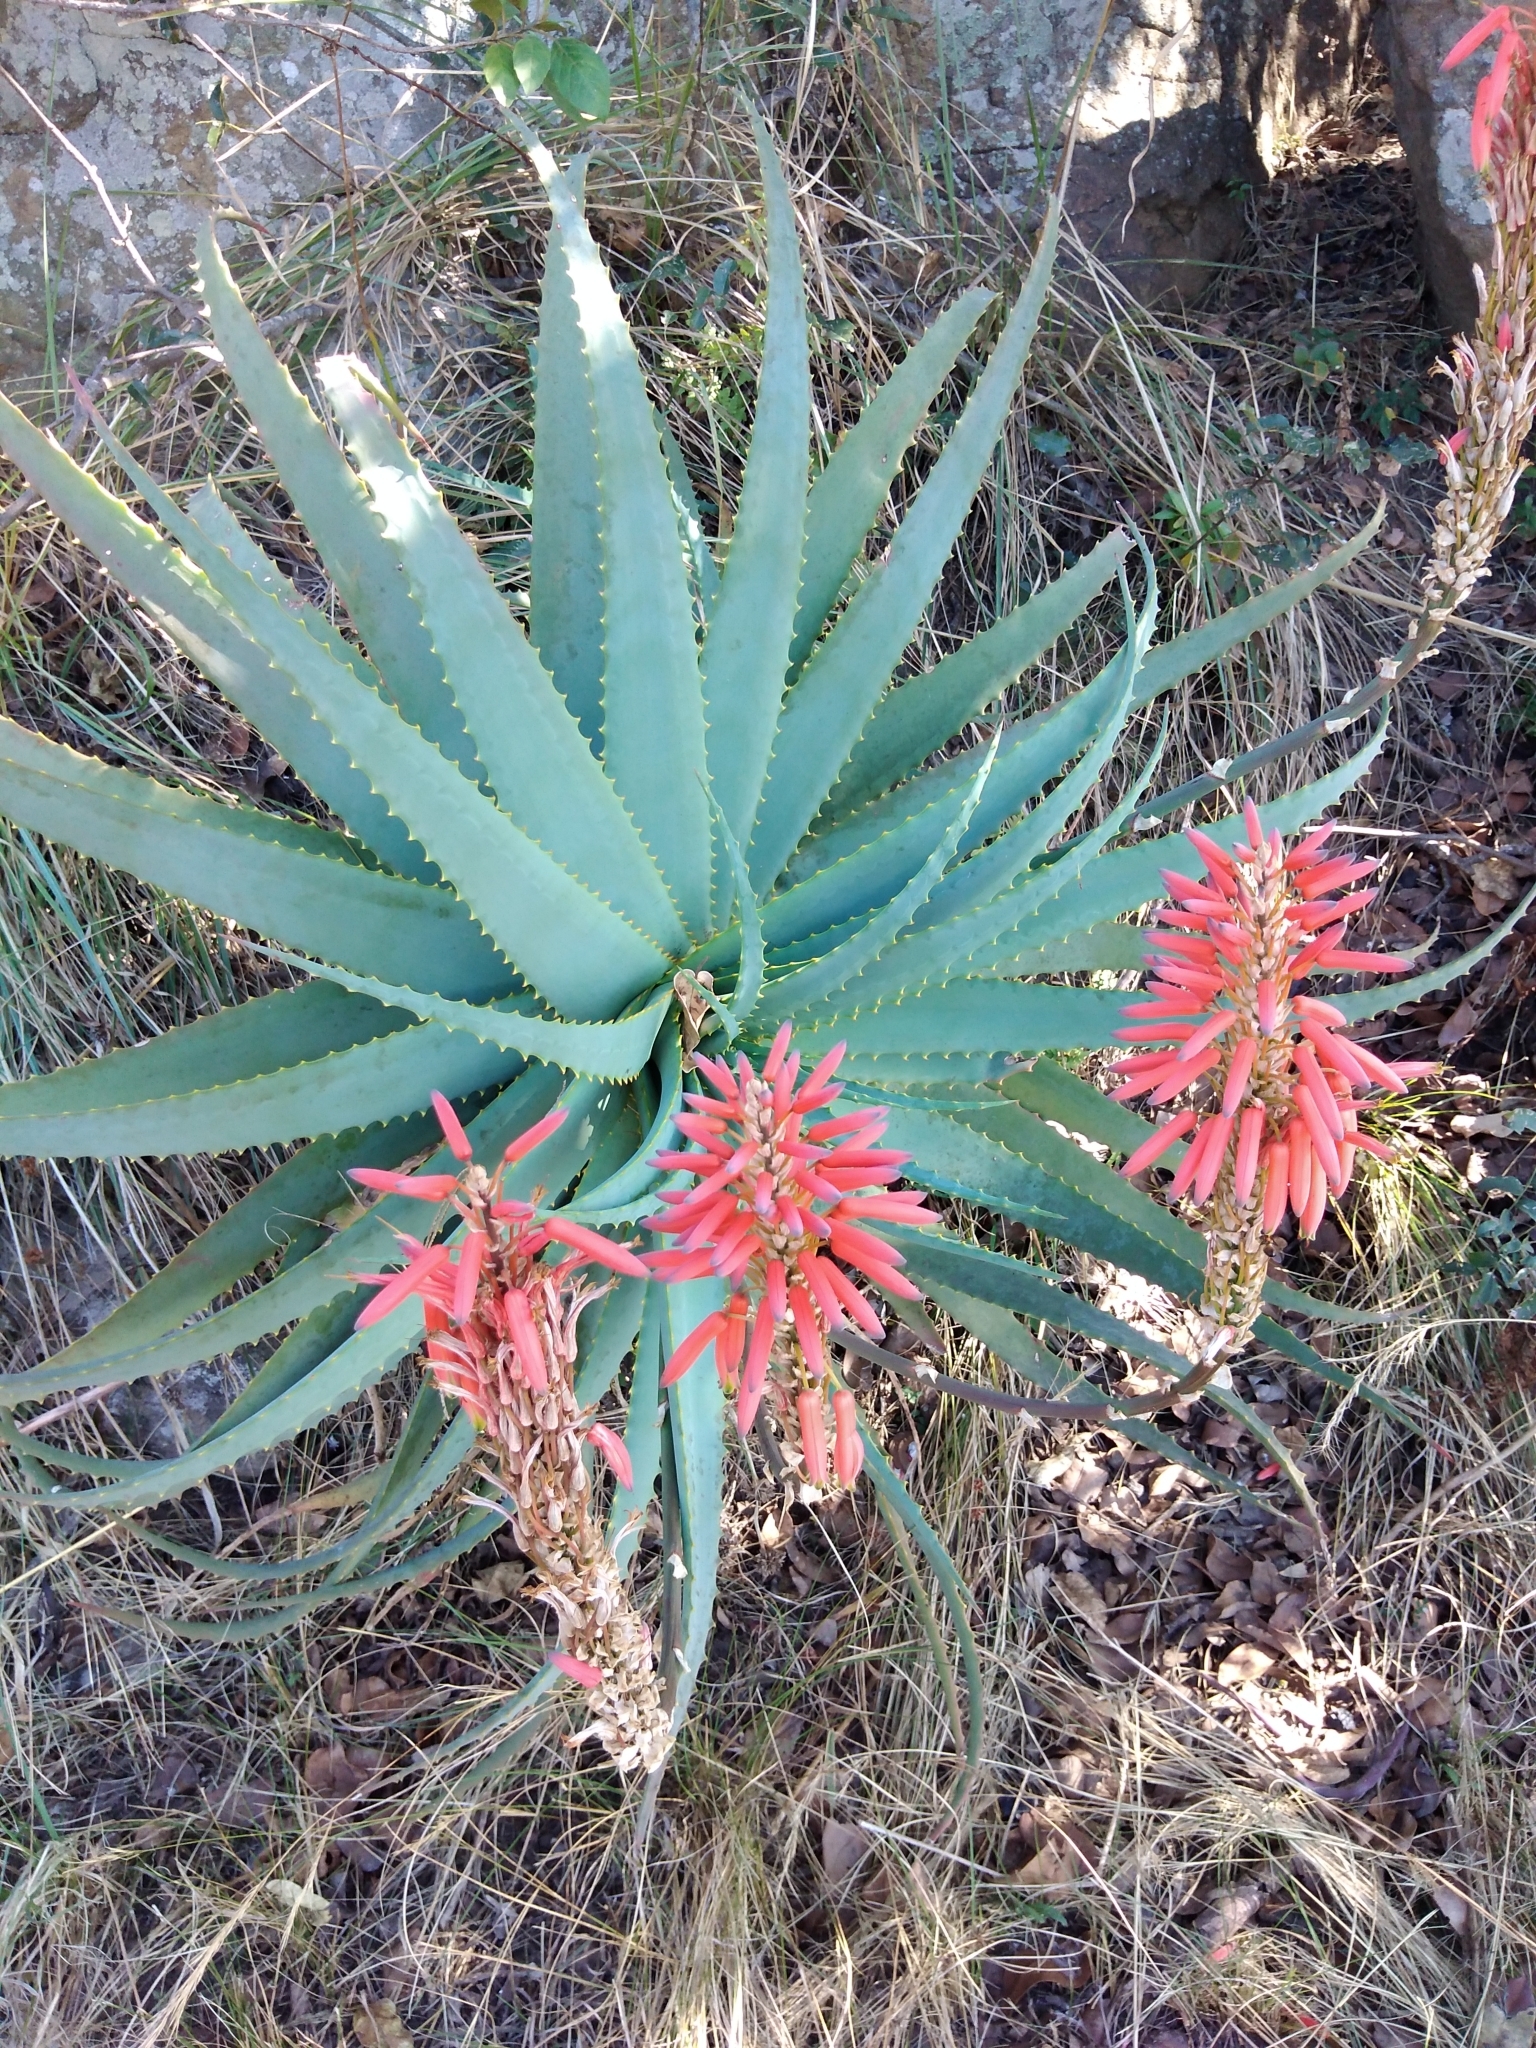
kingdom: Plantae
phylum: Tracheophyta
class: Liliopsida
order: Asparagales
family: Asphodelaceae
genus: Aloe
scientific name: Aloe arborescens
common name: Candelabra aloe
